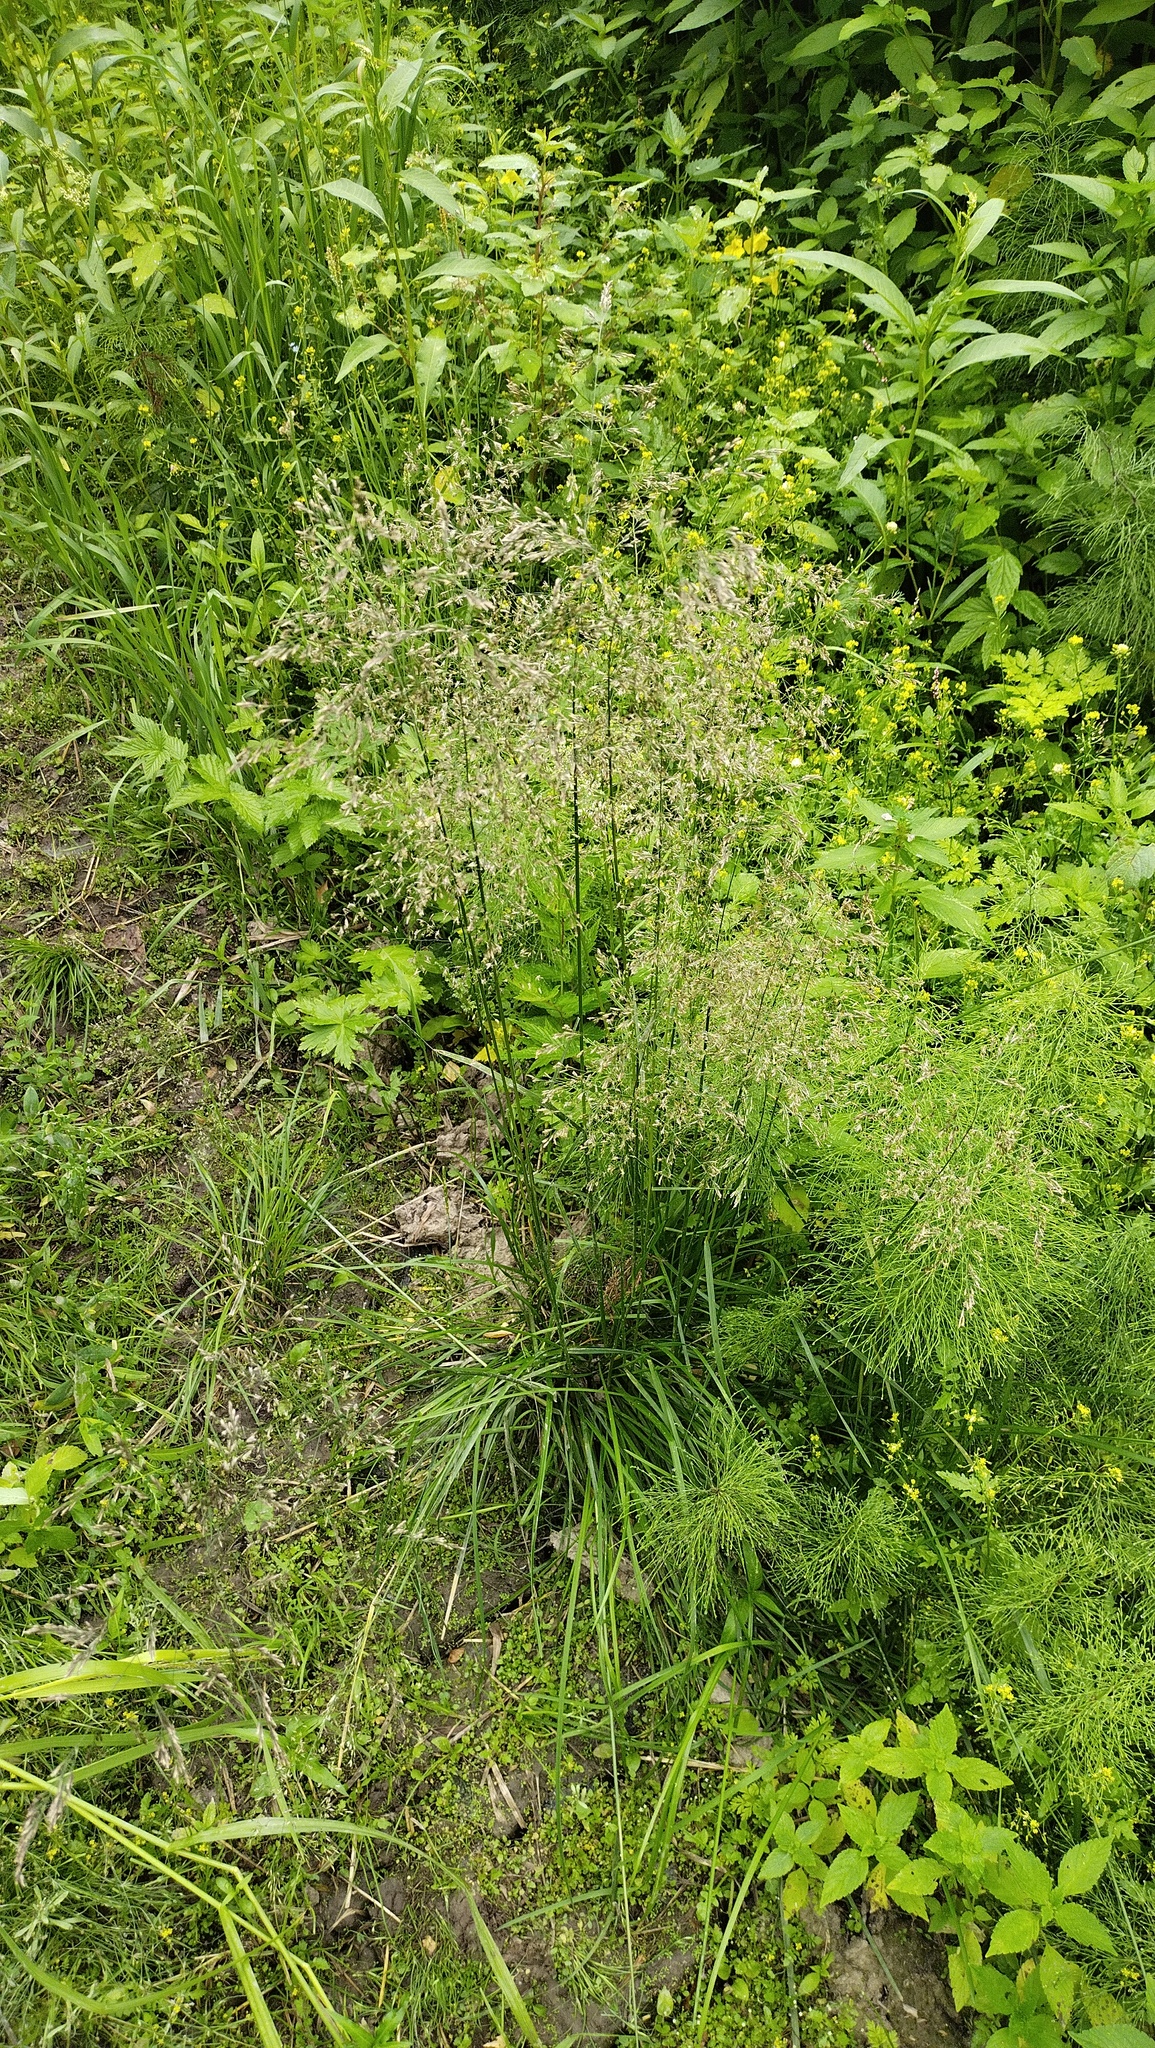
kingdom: Plantae
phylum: Tracheophyta
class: Liliopsida
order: Poales
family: Poaceae
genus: Deschampsia
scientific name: Deschampsia cespitosa
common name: Tufted hair-grass
